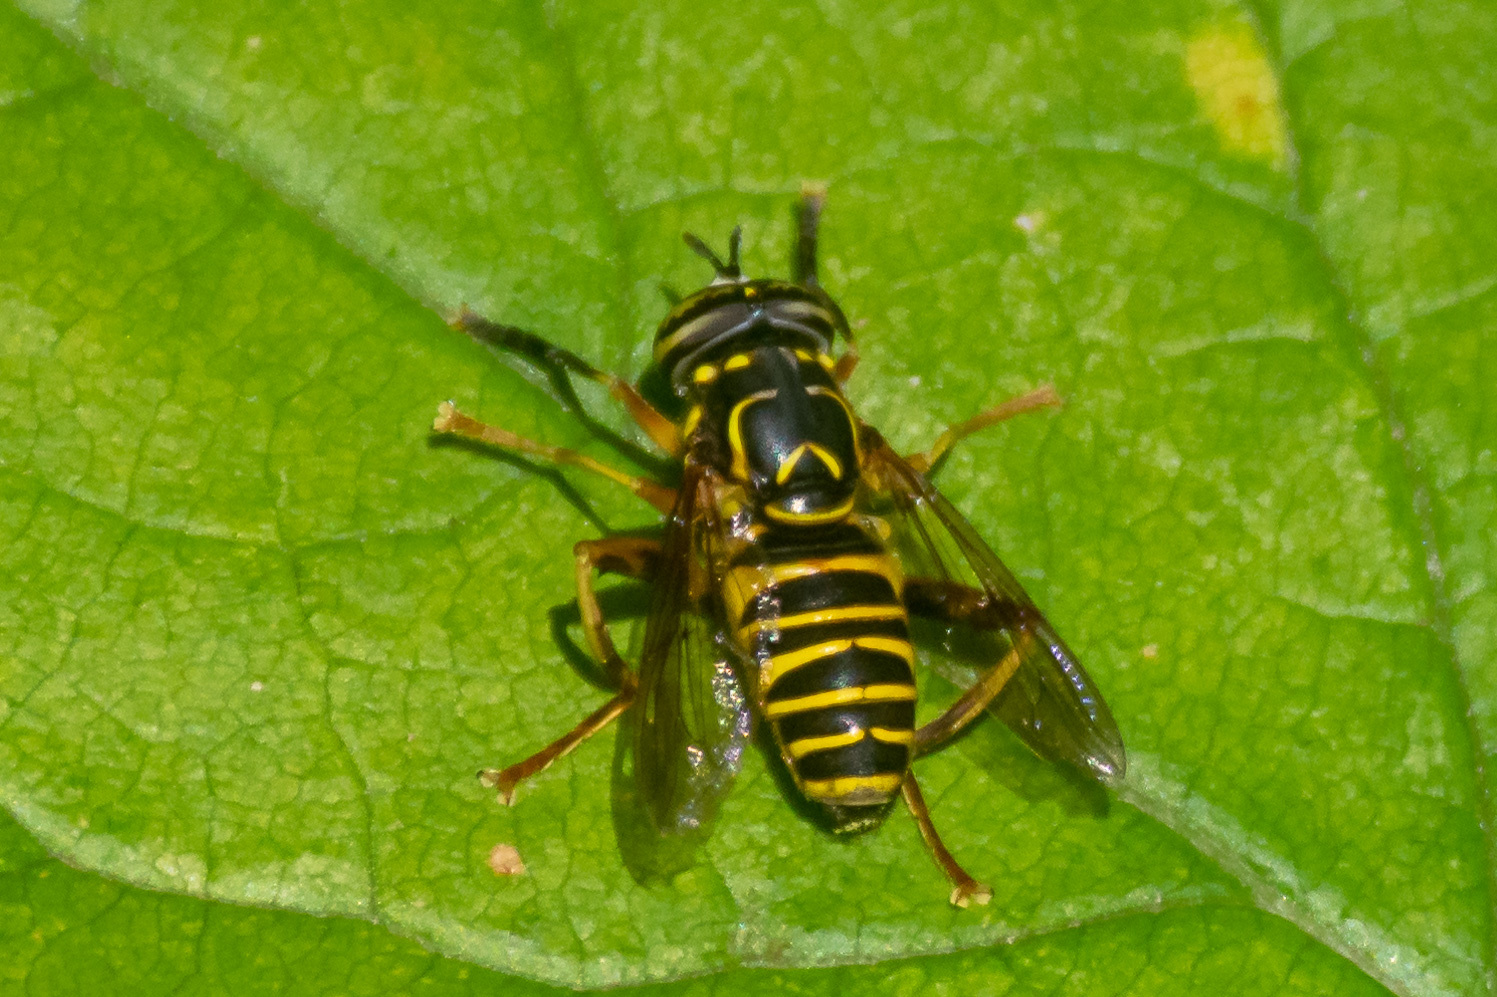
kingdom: Animalia
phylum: Arthropoda
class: Insecta
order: Diptera
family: Syrphidae
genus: Spilomyia
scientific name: Spilomyia longicornis
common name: Eastern hornet fly
